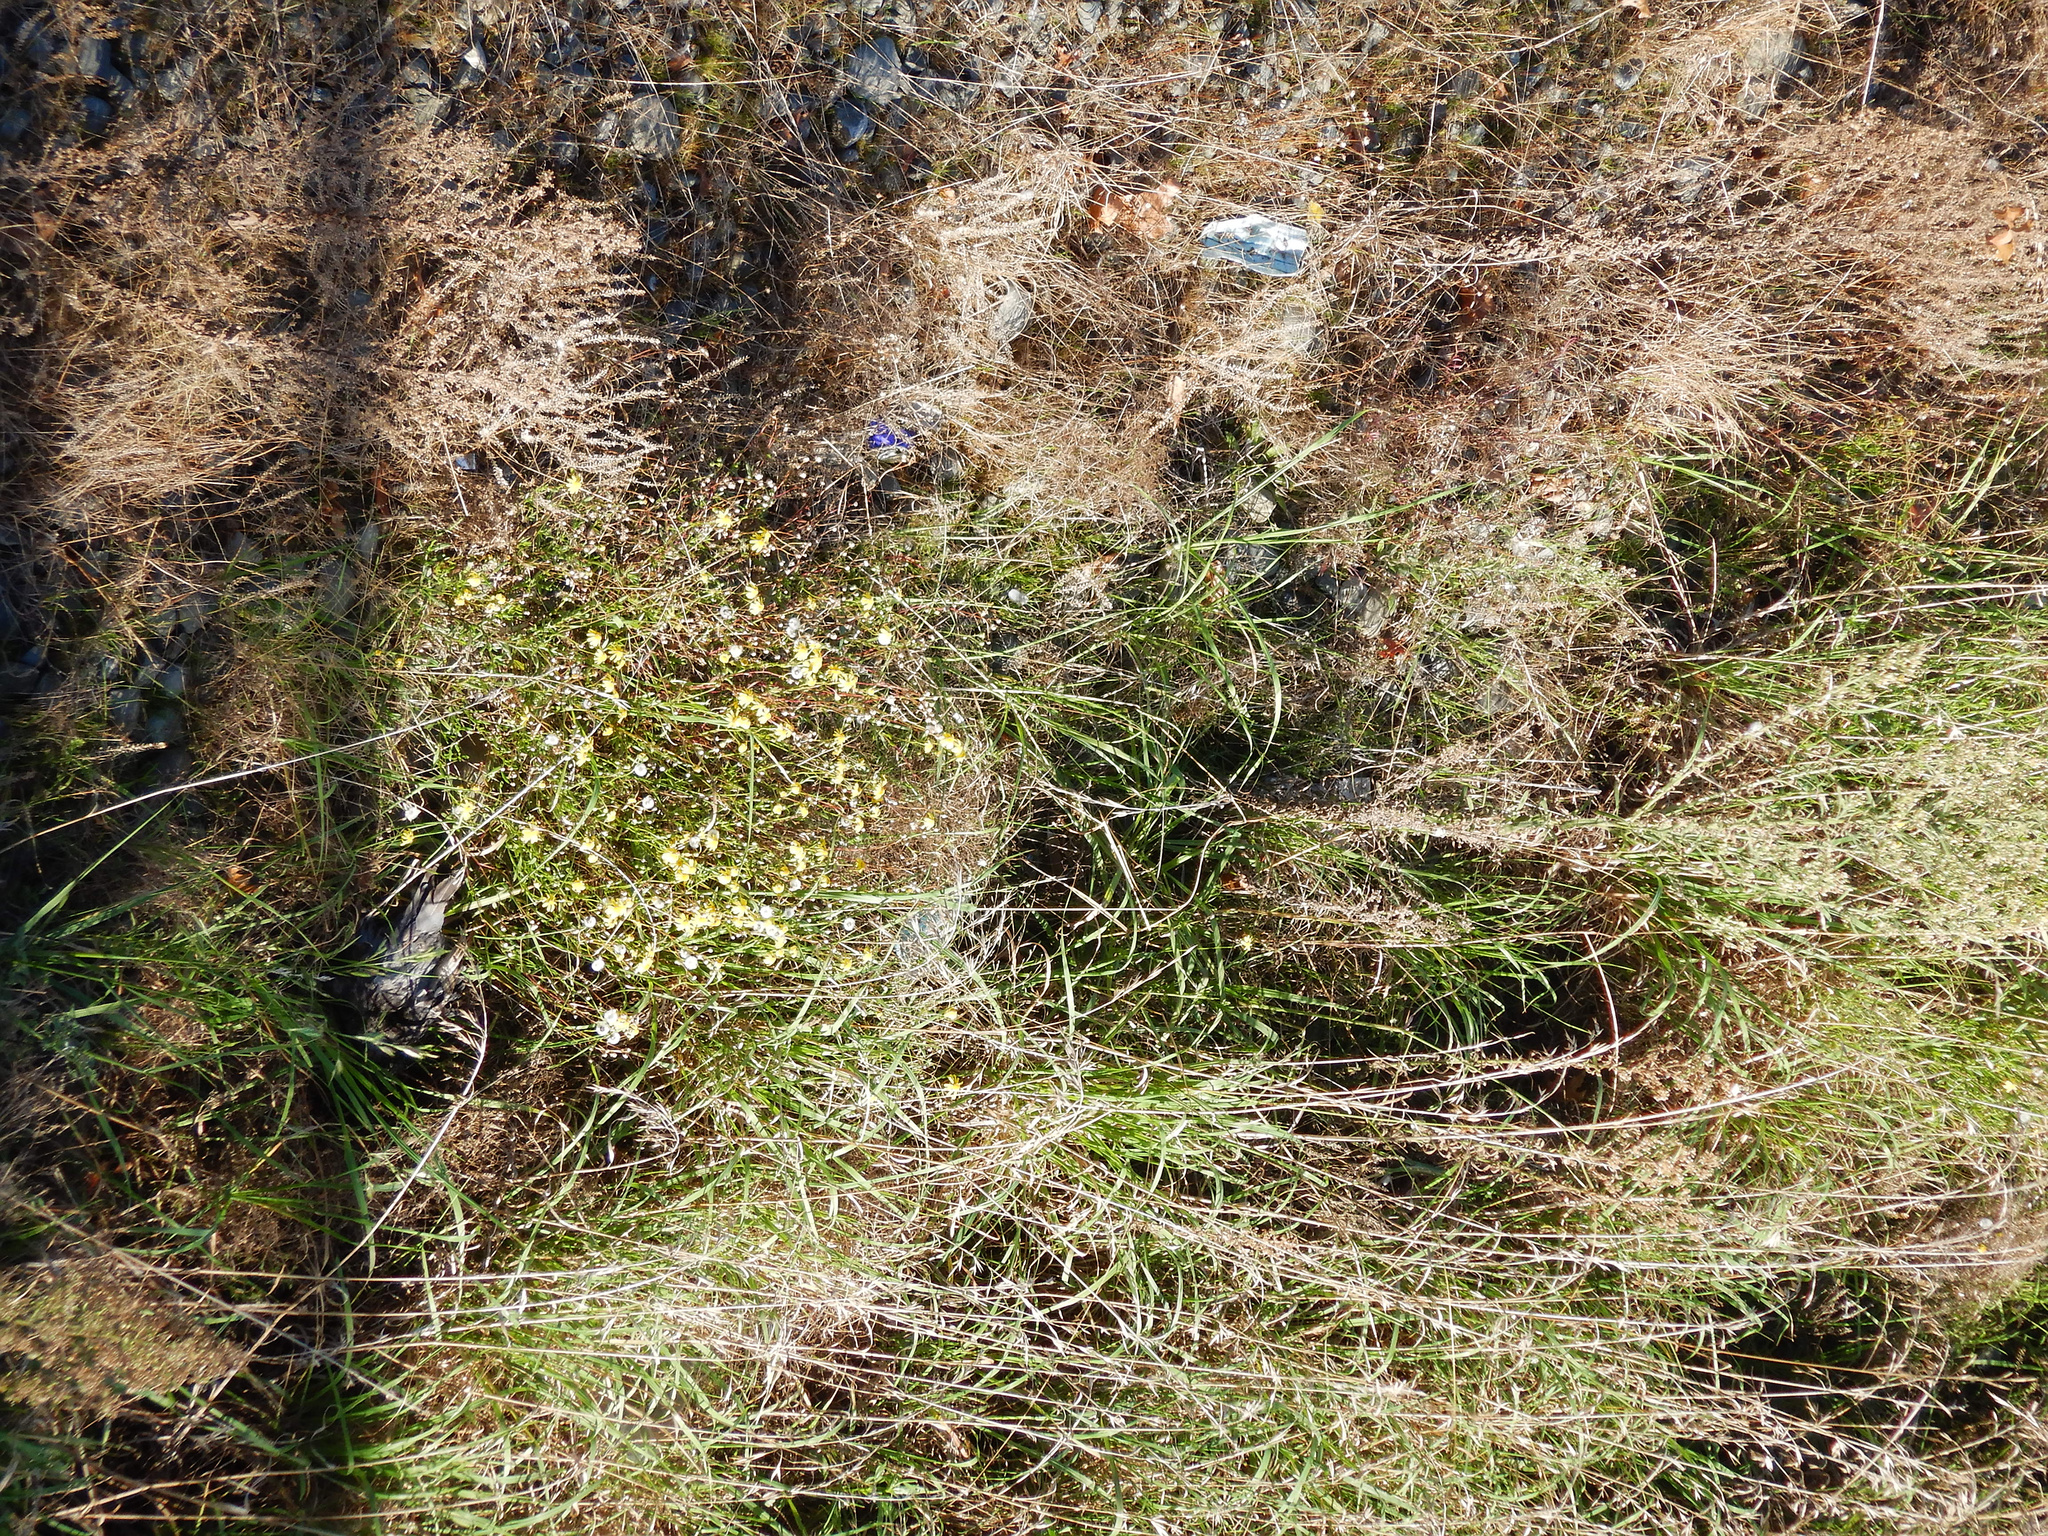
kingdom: Plantae
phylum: Tracheophyta
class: Magnoliopsida
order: Asterales
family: Asteraceae
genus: Senecio
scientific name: Senecio skirrhodon
